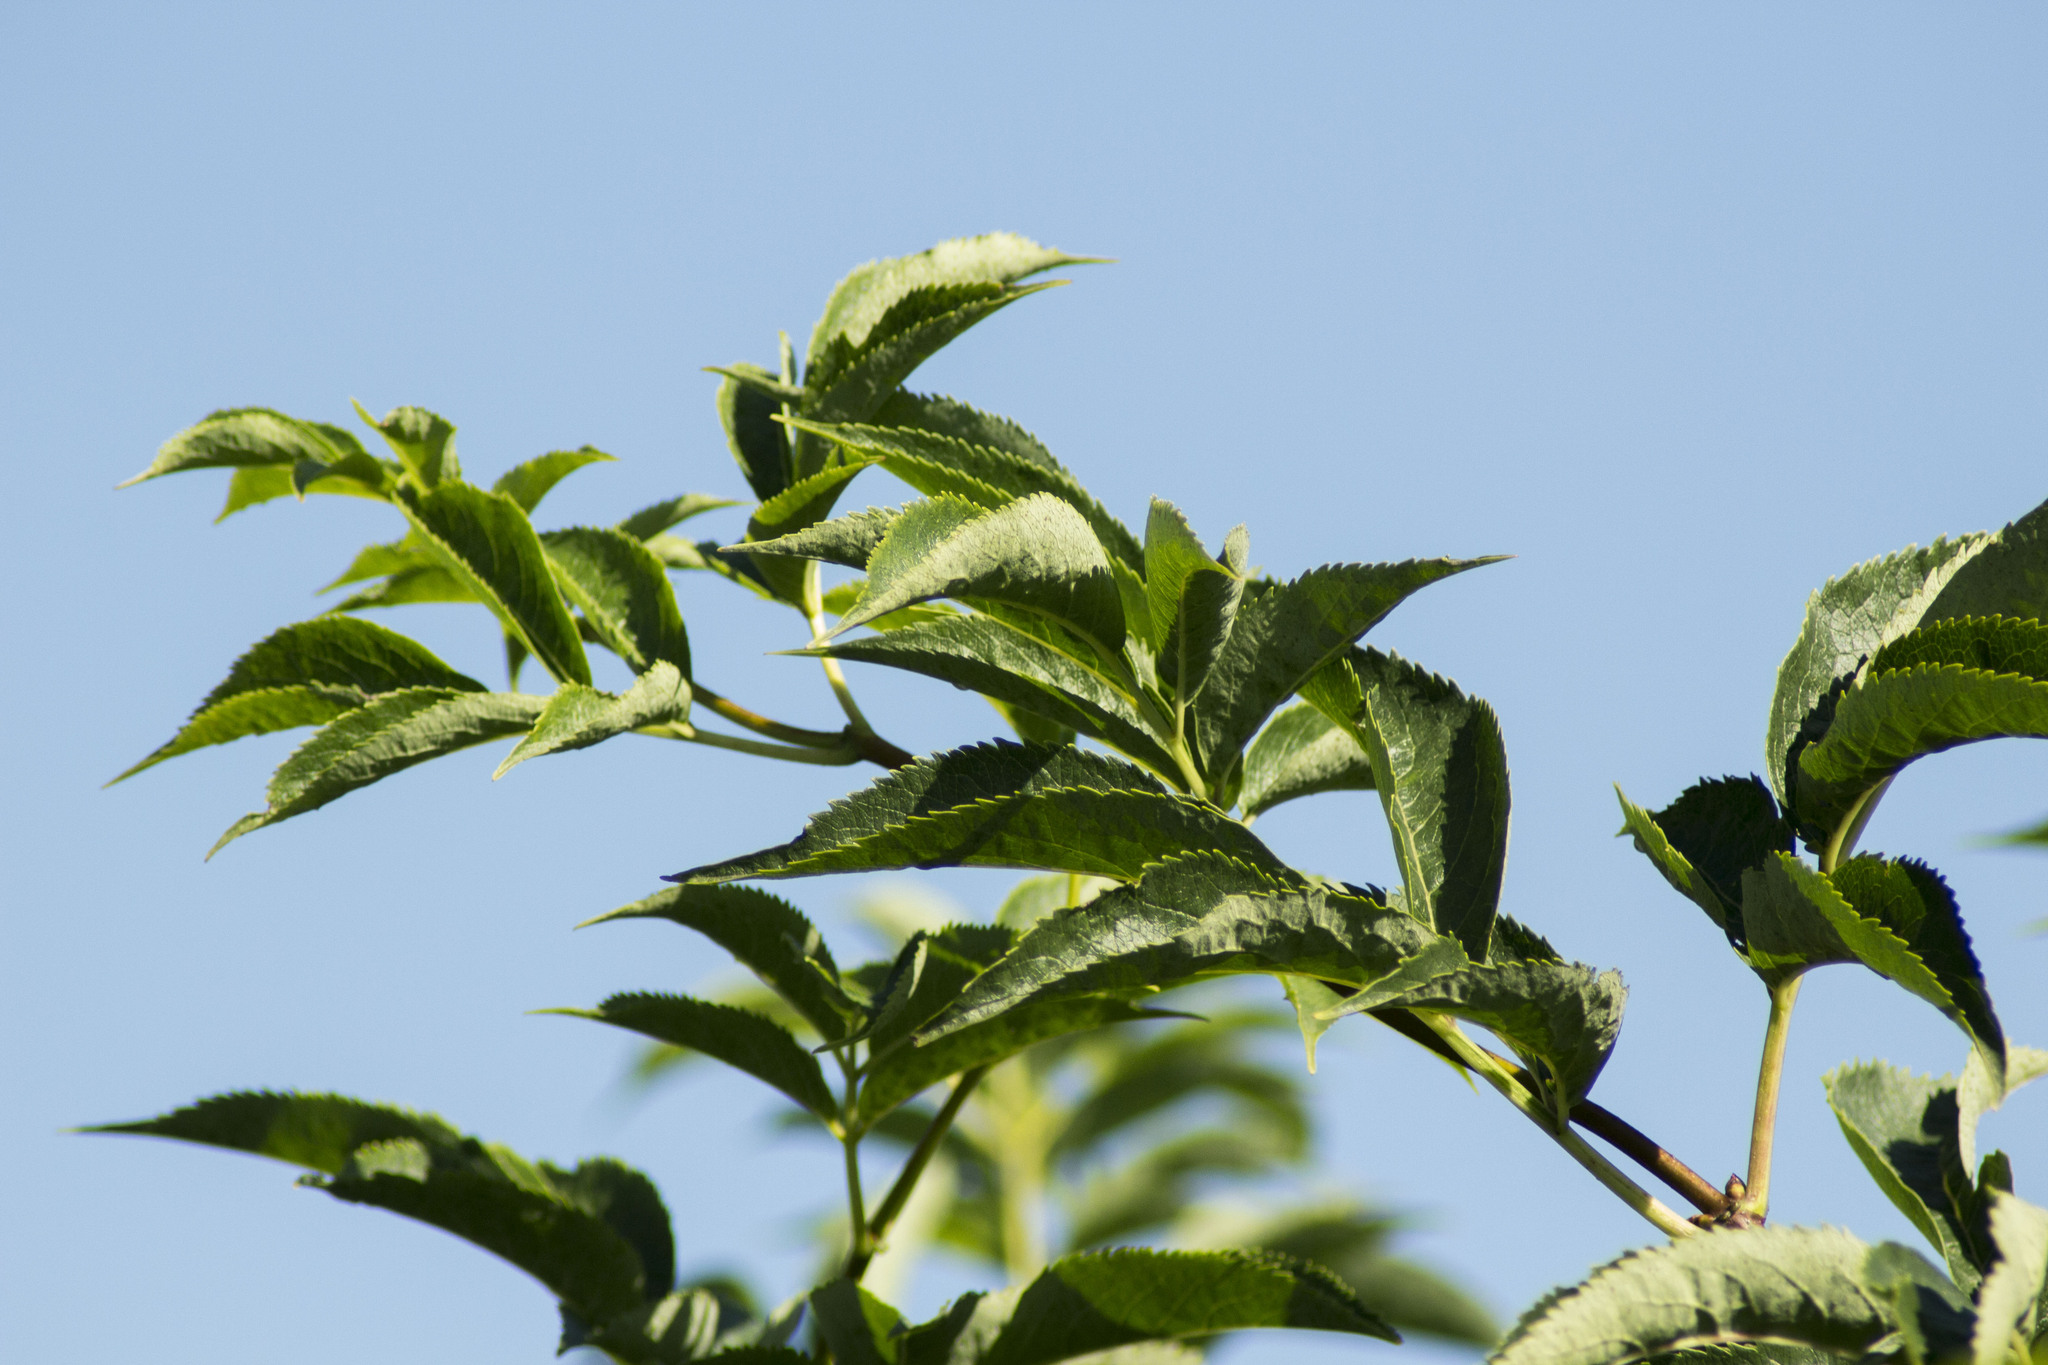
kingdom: Plantae
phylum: Tracheophyta
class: Magnoliopsida
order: Dipsacales
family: Viburnaceae
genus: Sambucus
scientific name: Sambucus racemosa
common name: Red-berried elder
